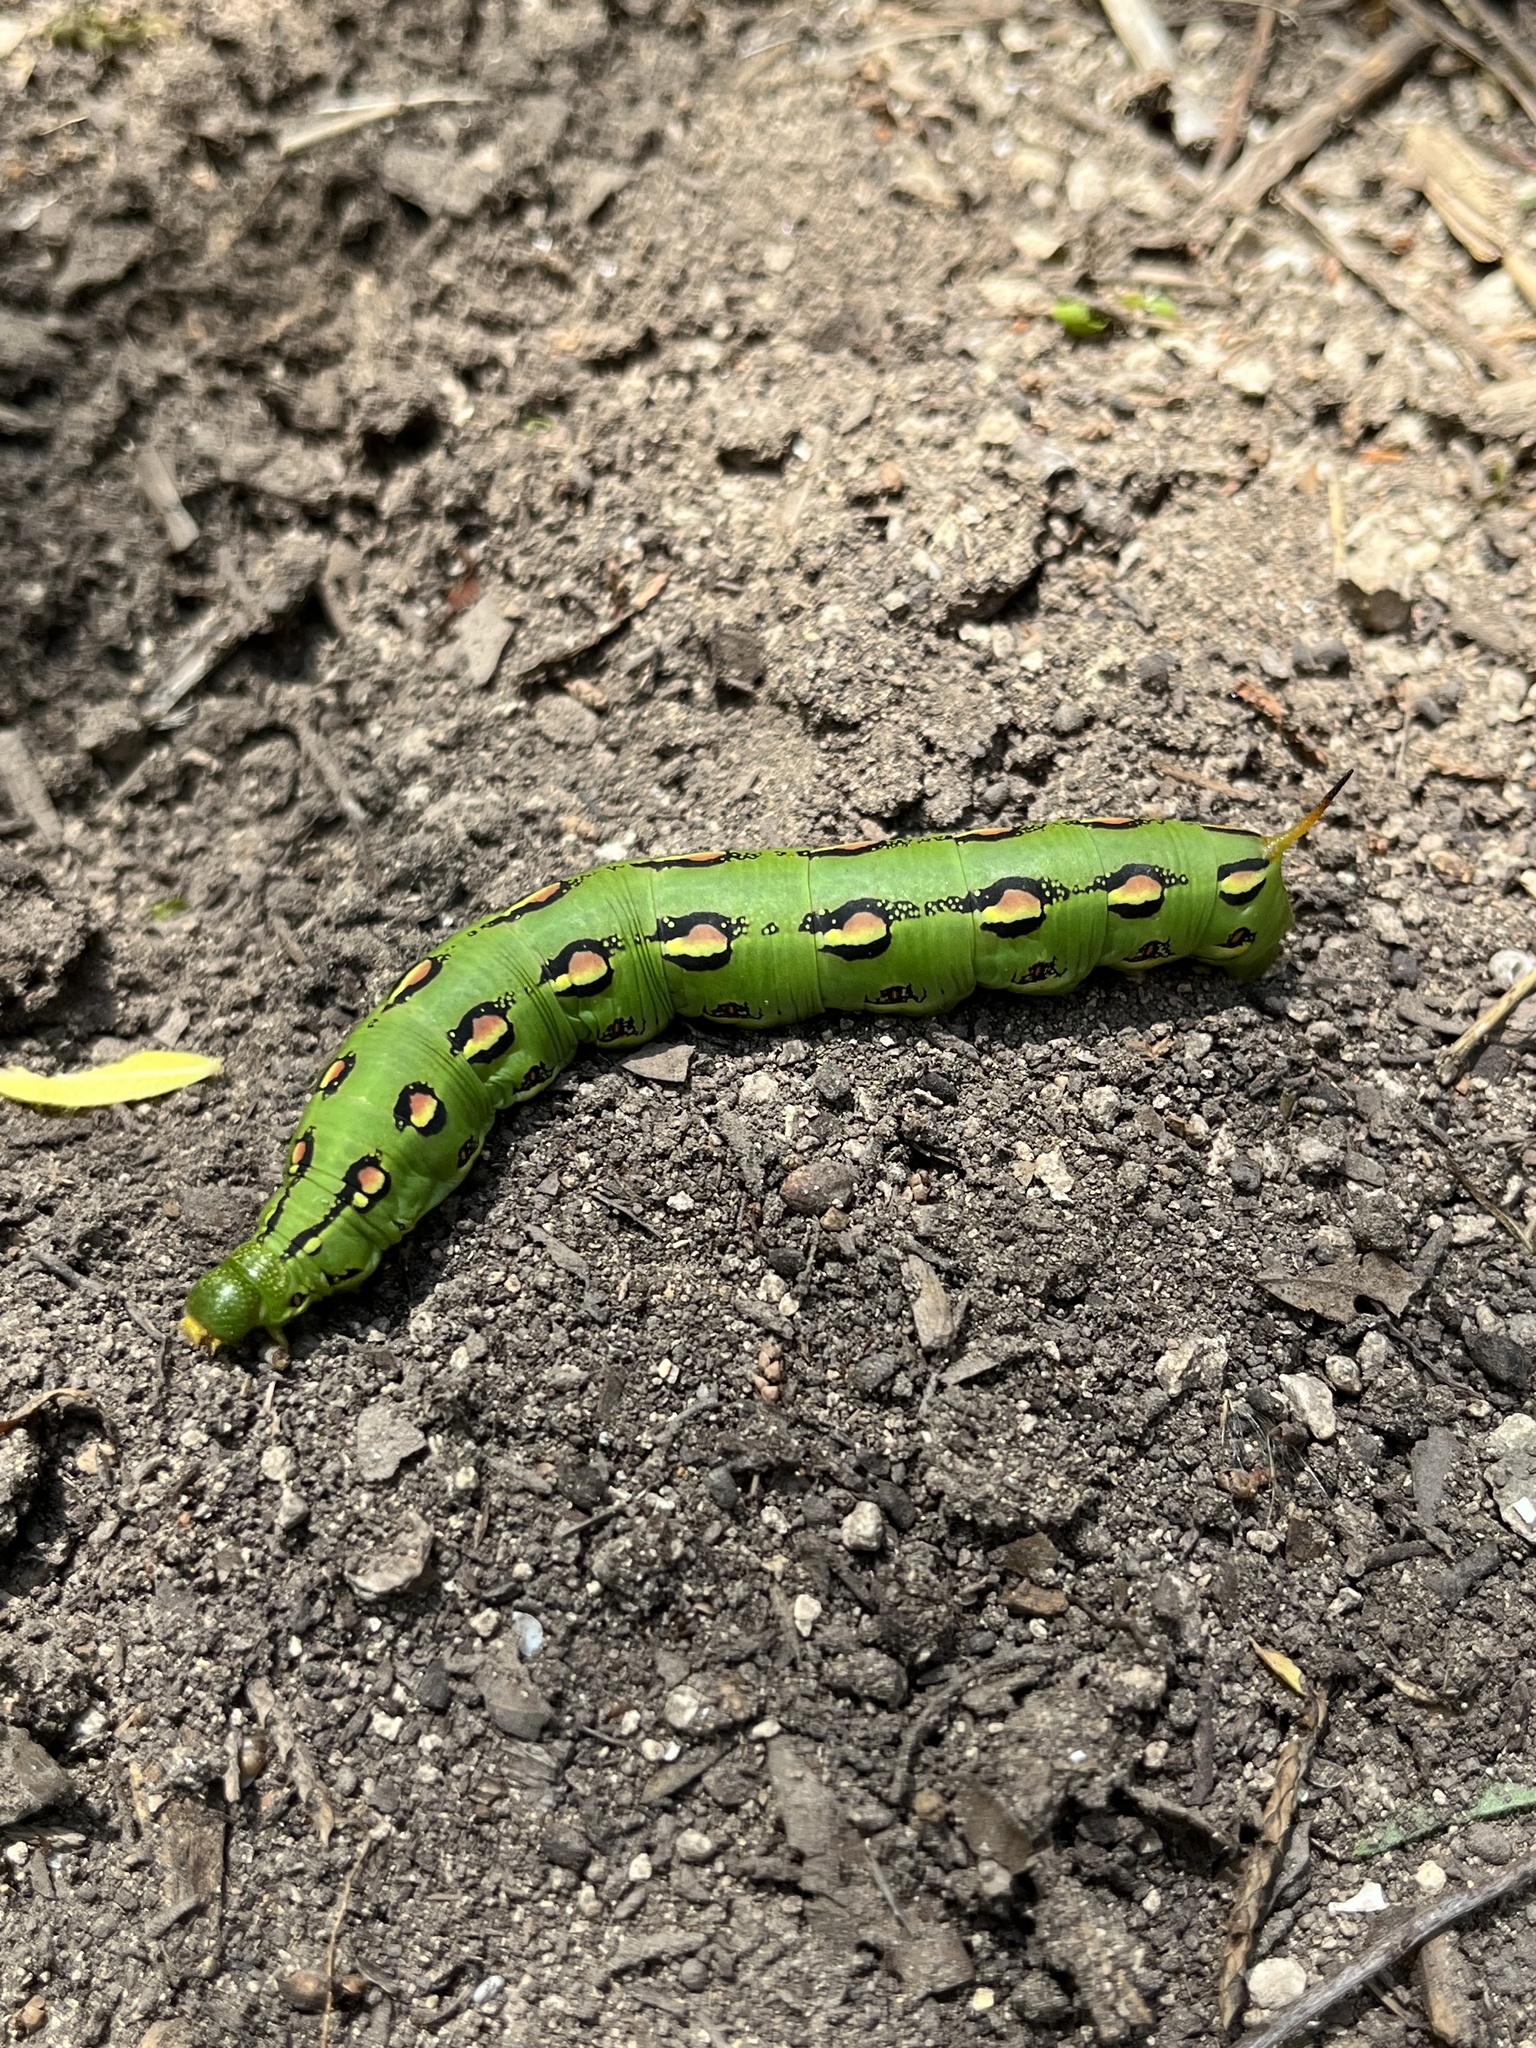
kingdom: Animalia
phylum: Arthropoda
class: Insecta
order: Lepidoptera
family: Sphingidae
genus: Hyles
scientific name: Hyles lineata
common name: White-lined sphinx
